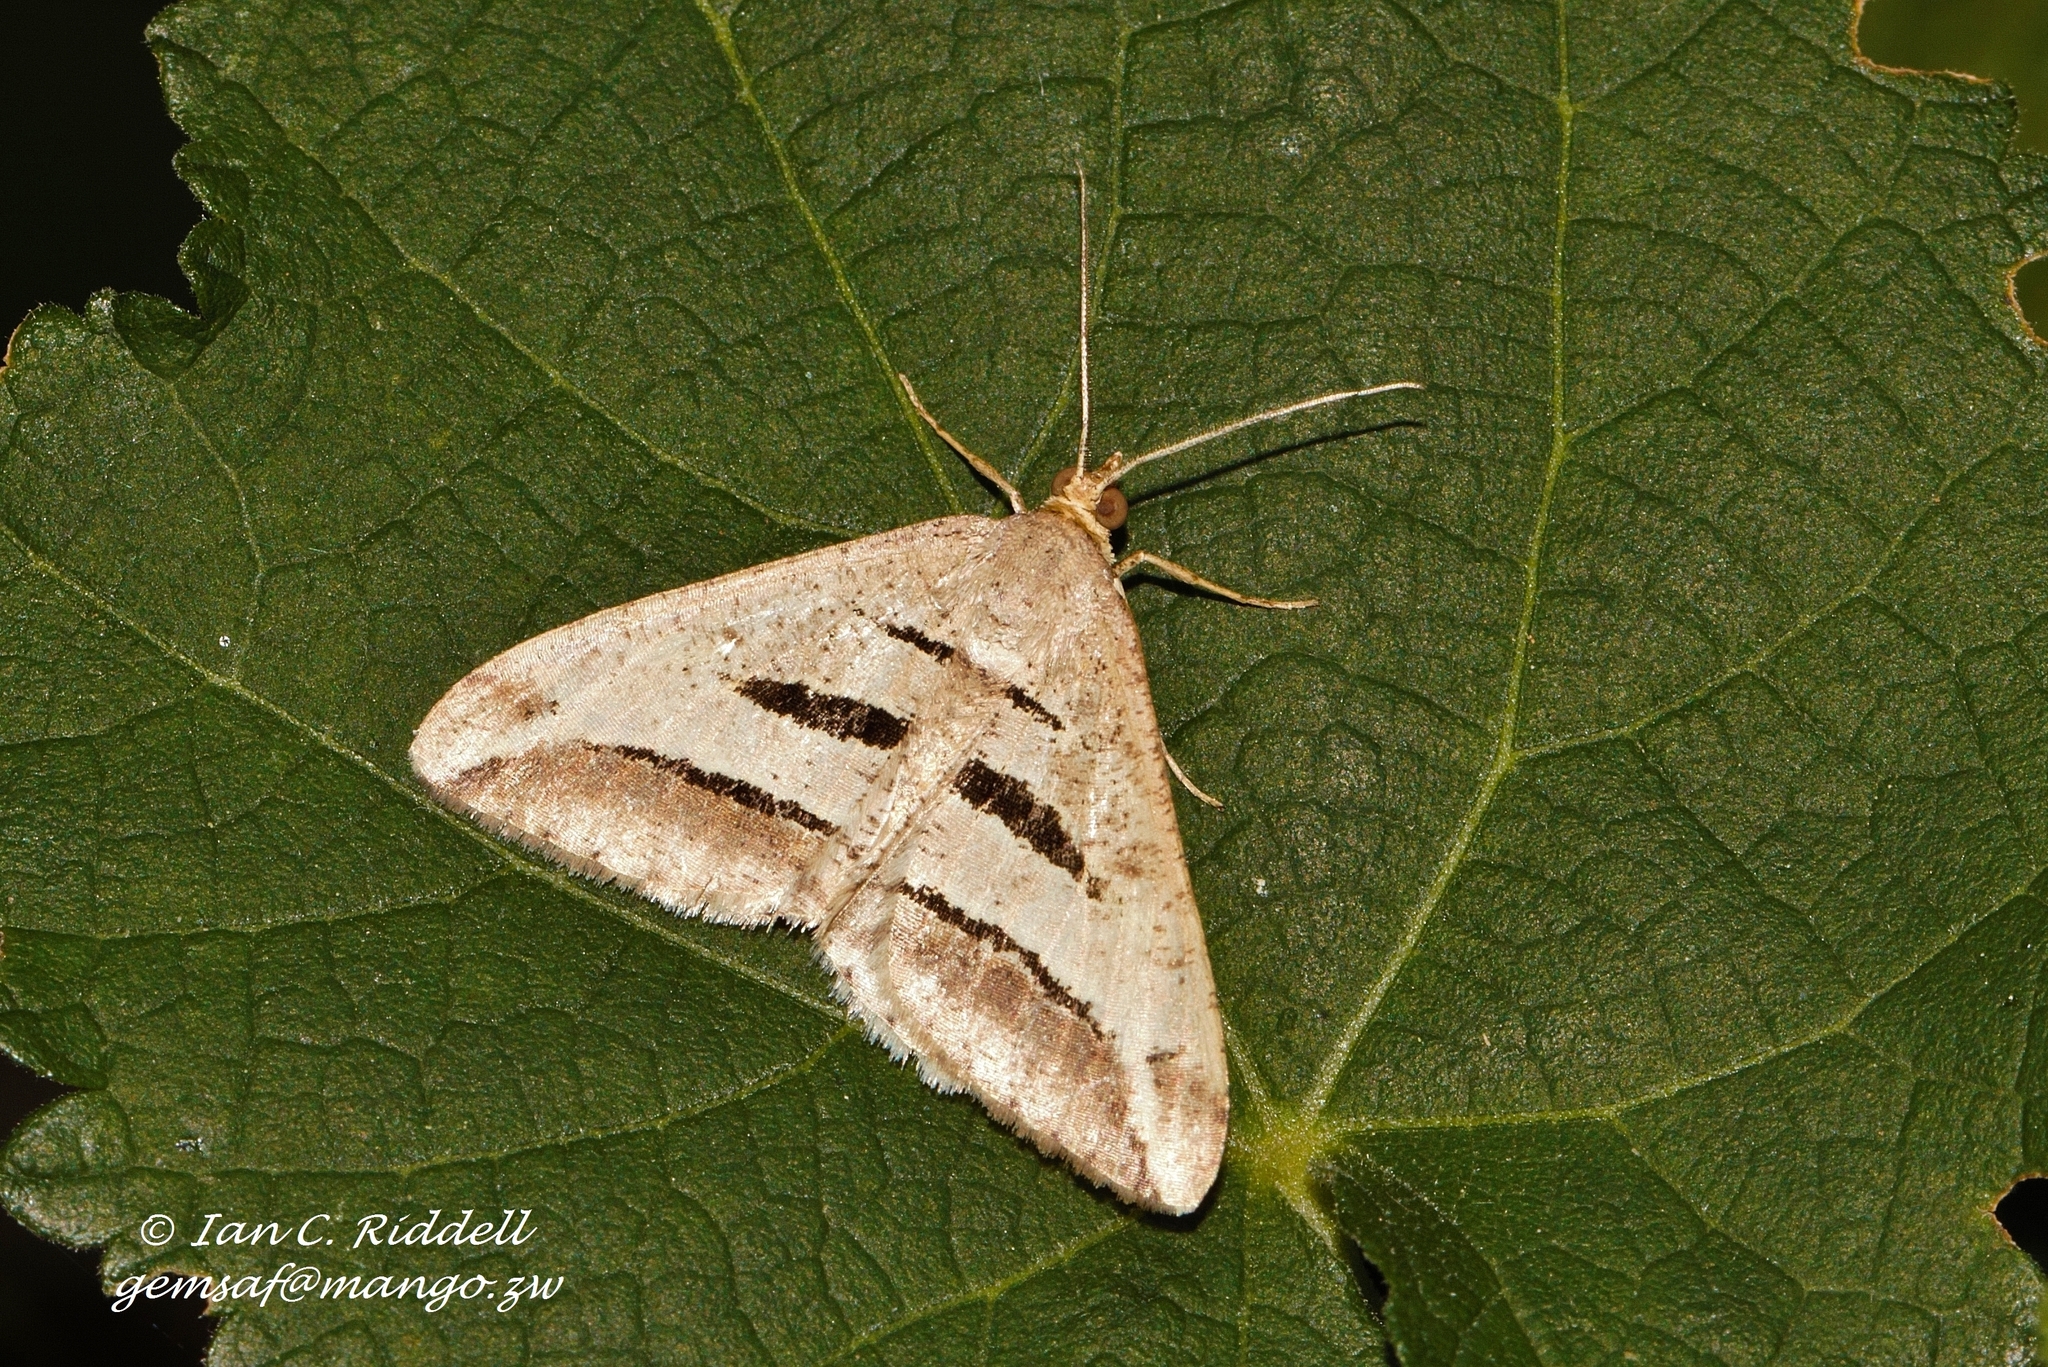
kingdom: Animalia
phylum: Arthropoda
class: Insecta
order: Lepidoptera
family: Geometridae
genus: Chiasmia
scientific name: Chiasmia subcurvaria
